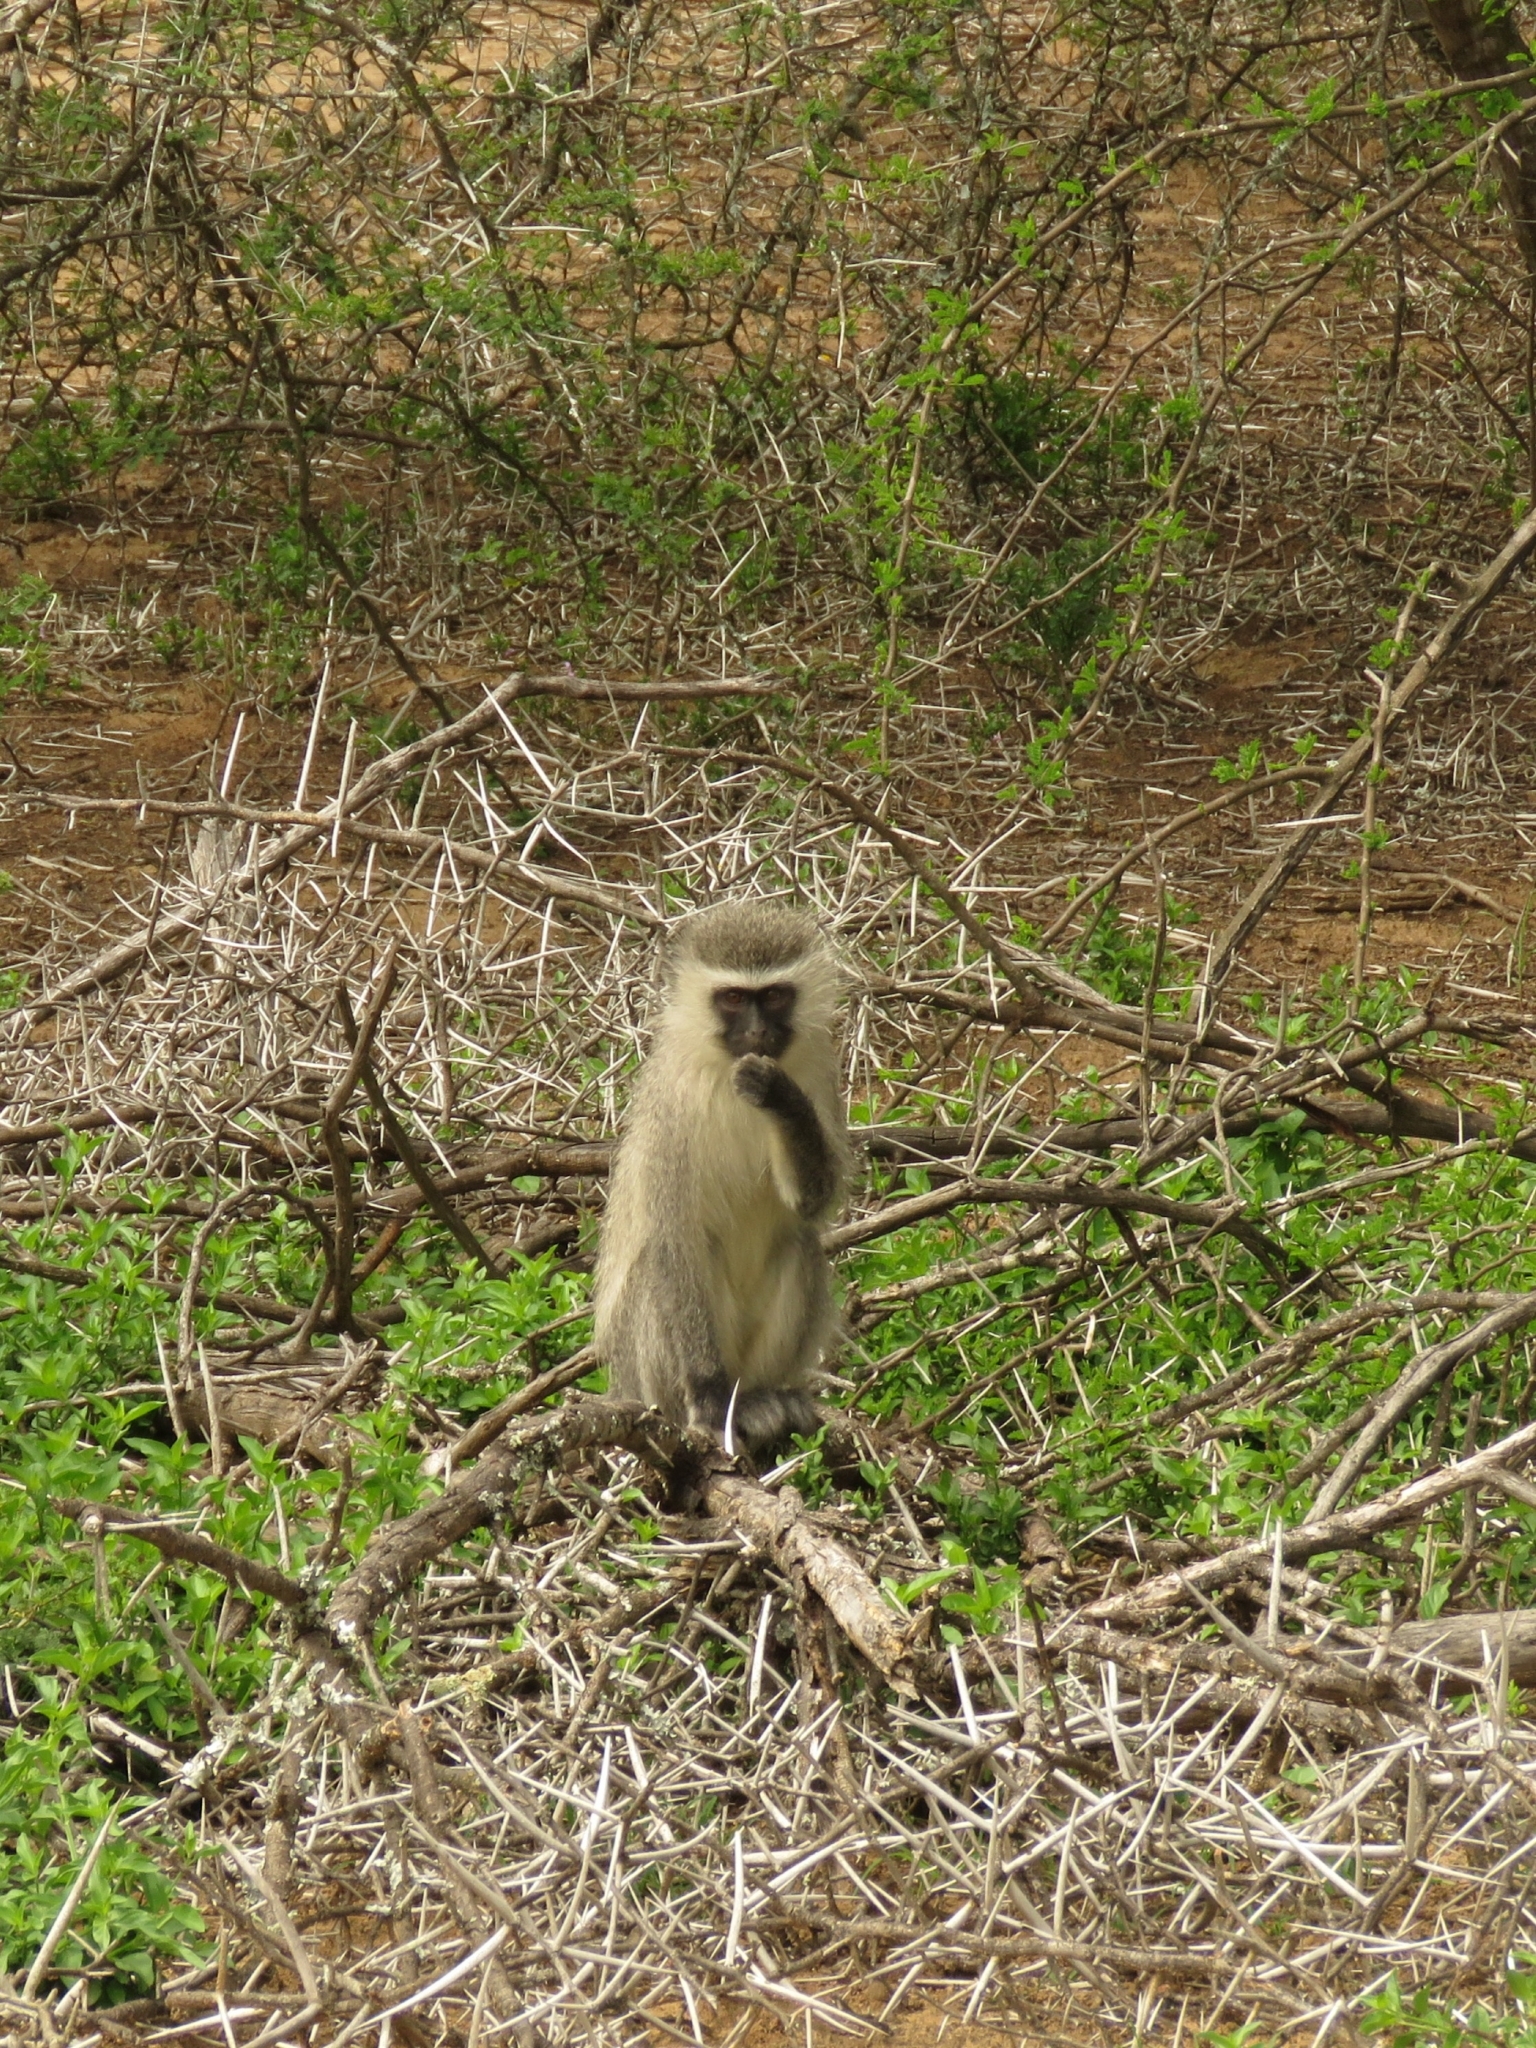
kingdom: Animalia
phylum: Chordata
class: Mammalia
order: Primates
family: Cercopithecidae
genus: Chlorocebus
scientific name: Chlorocebus pygerythrus
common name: Vervet monkey
